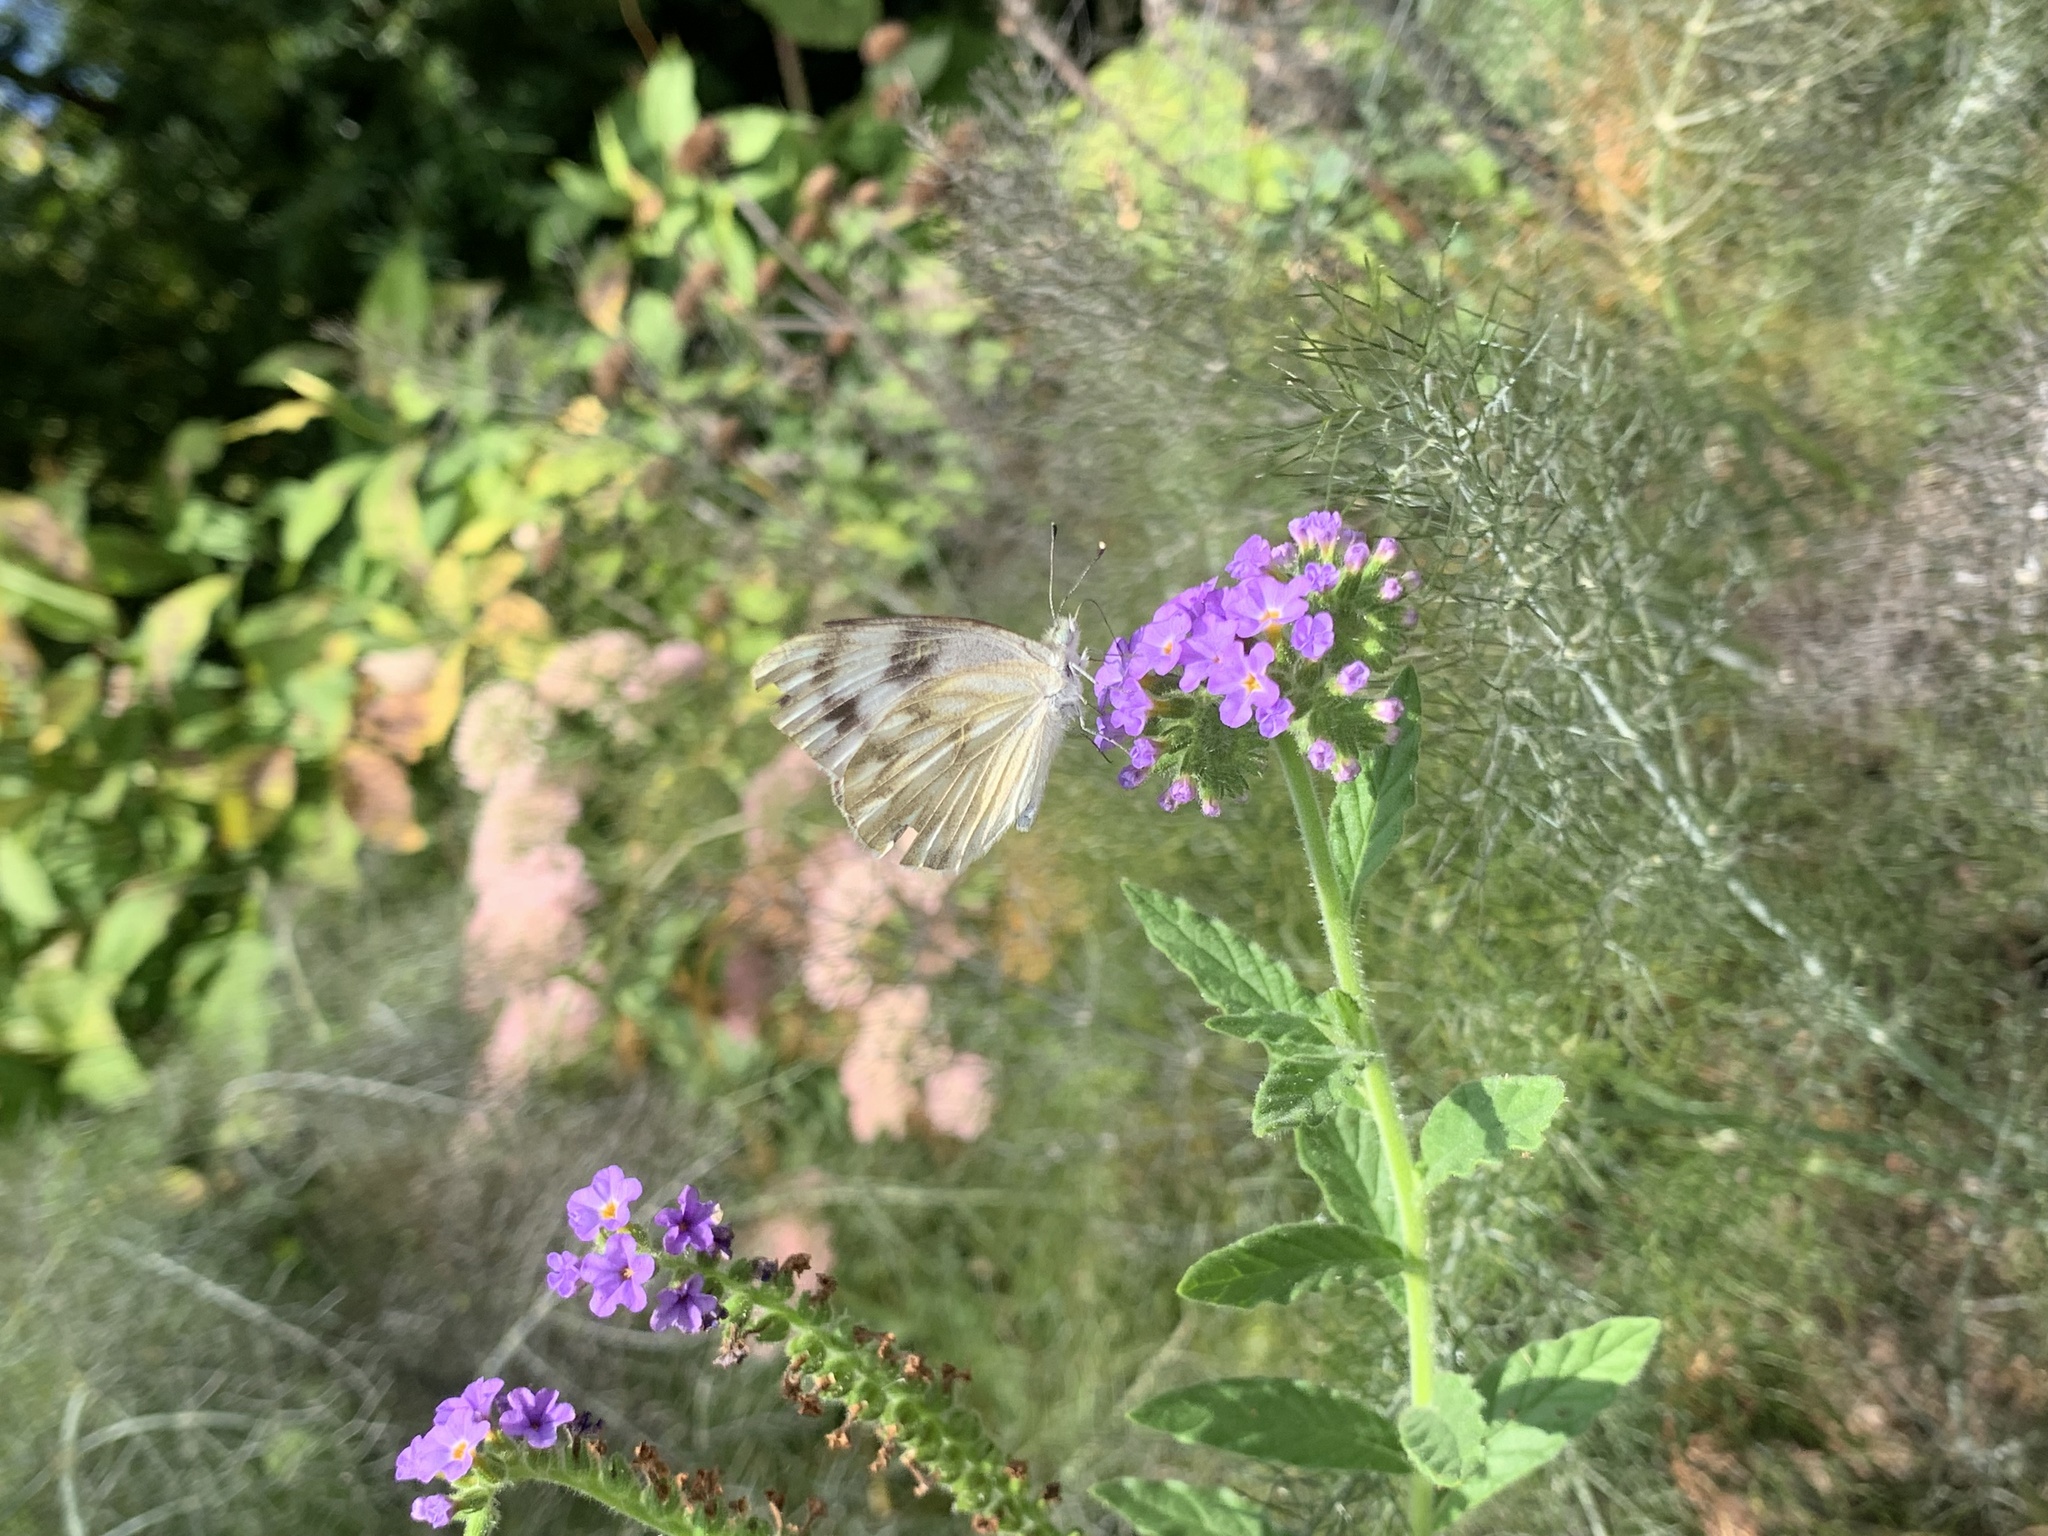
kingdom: Animalia
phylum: Arthropoda
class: Insecta
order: Lepidoptera
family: Pieridae
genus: Pontia
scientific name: Pontia protodice
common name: Checkered white
